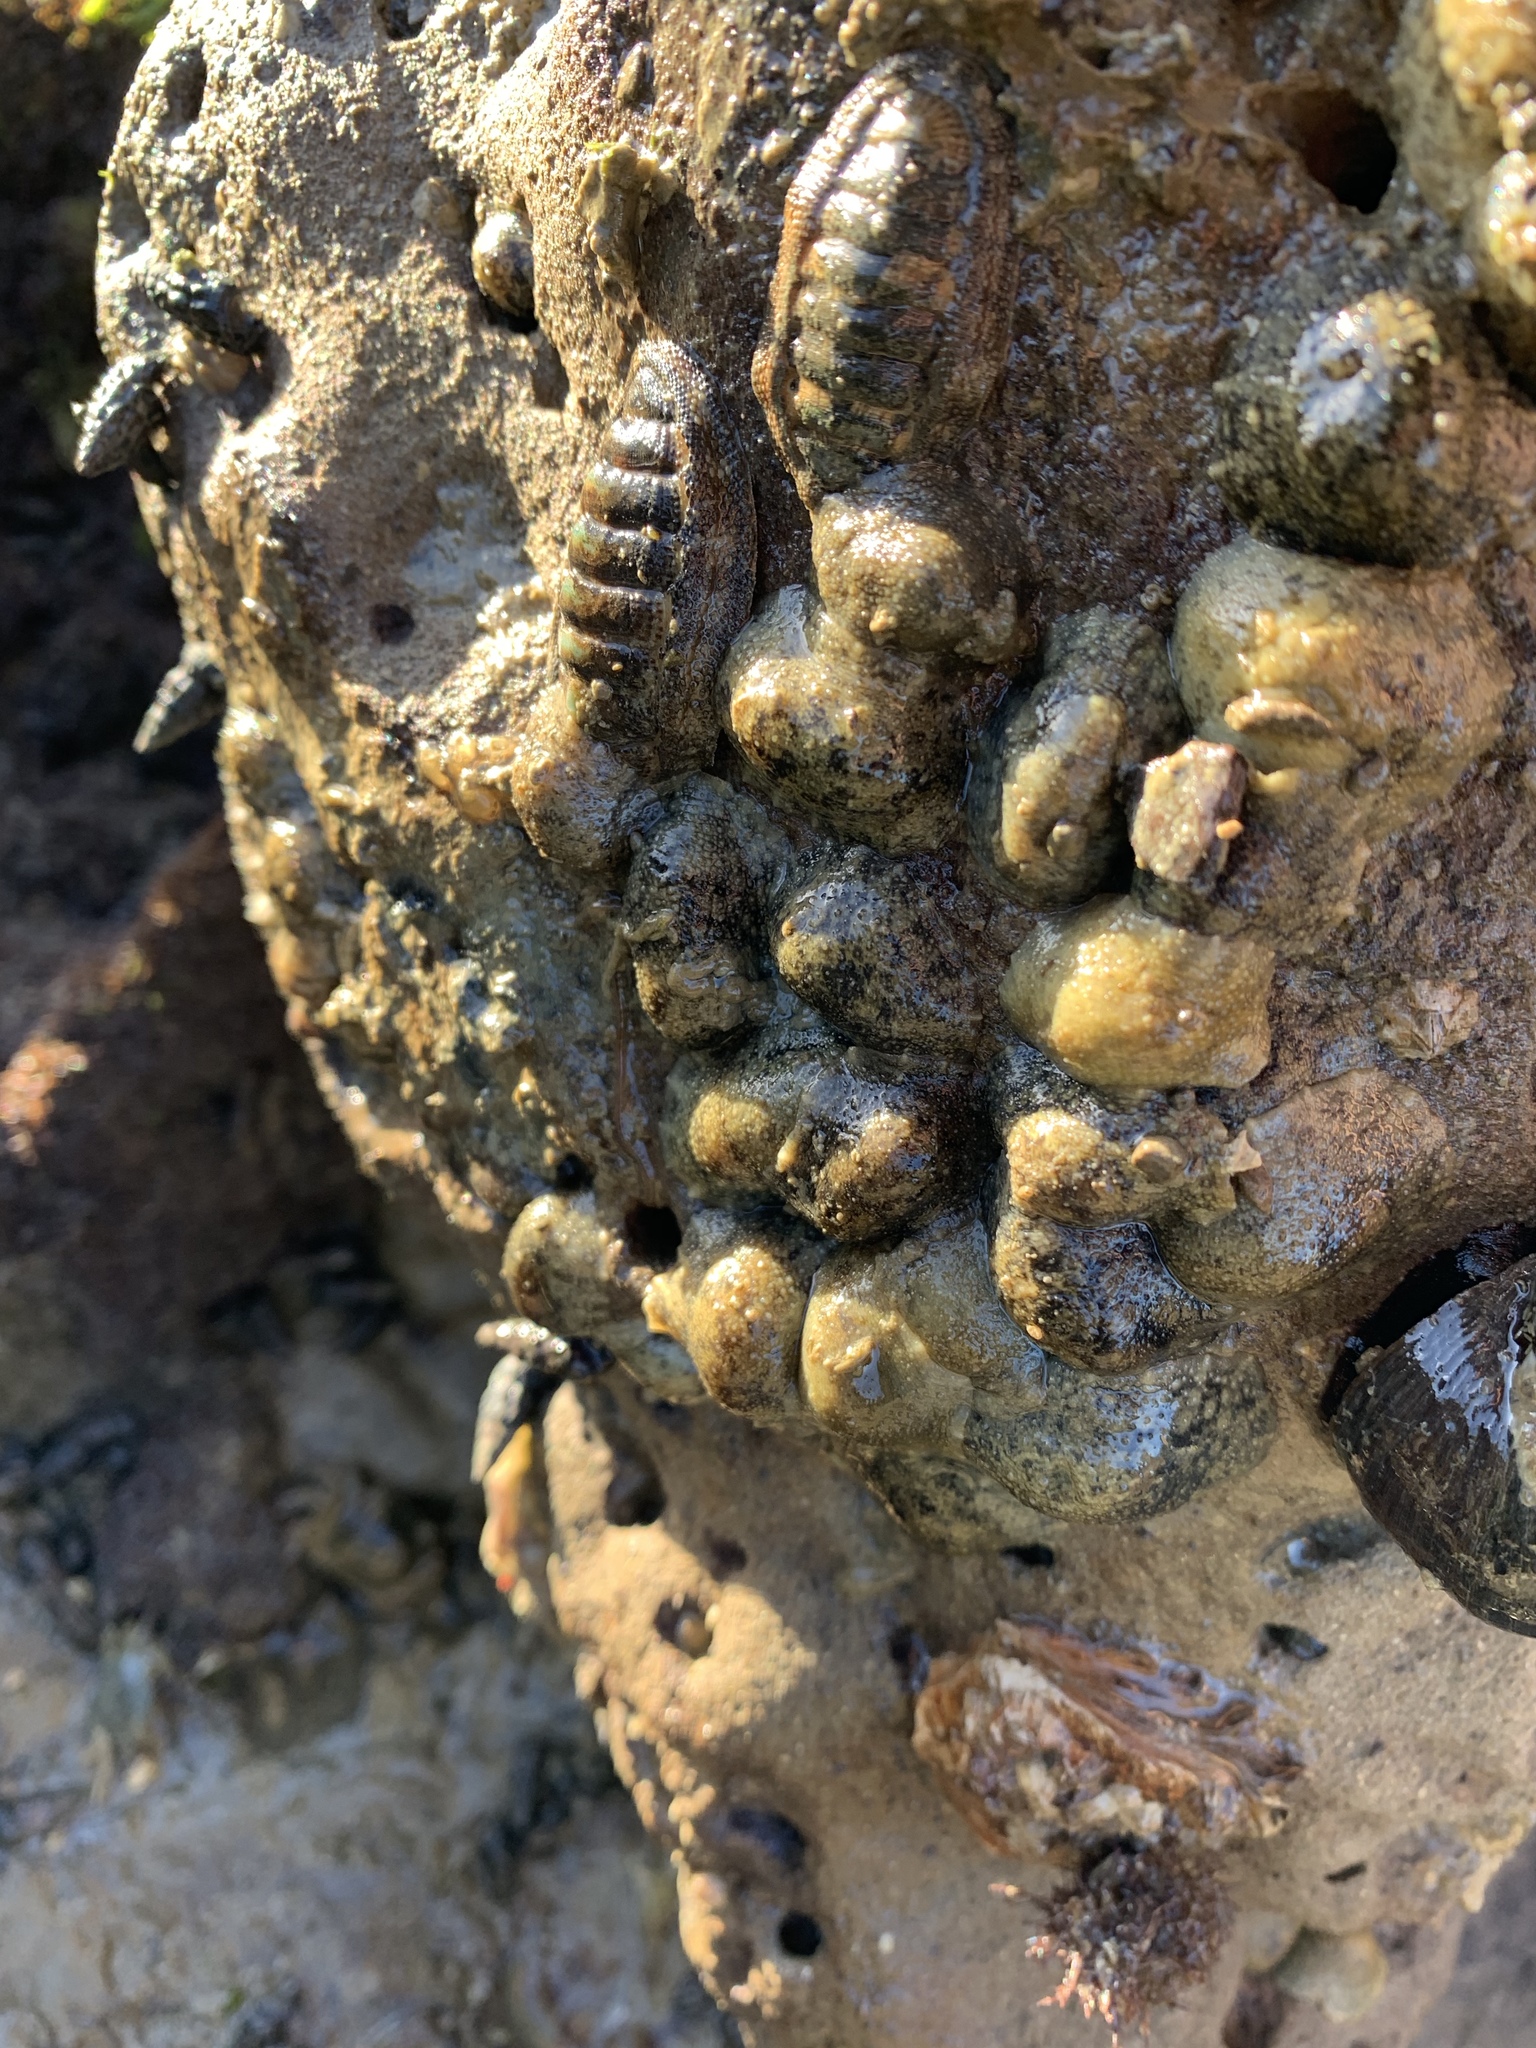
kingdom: Animalia
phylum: Mollusca
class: Gastropoda
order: Systellommatophora
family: Onchidiidae
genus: Onchidella
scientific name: Onchidella nigricans
